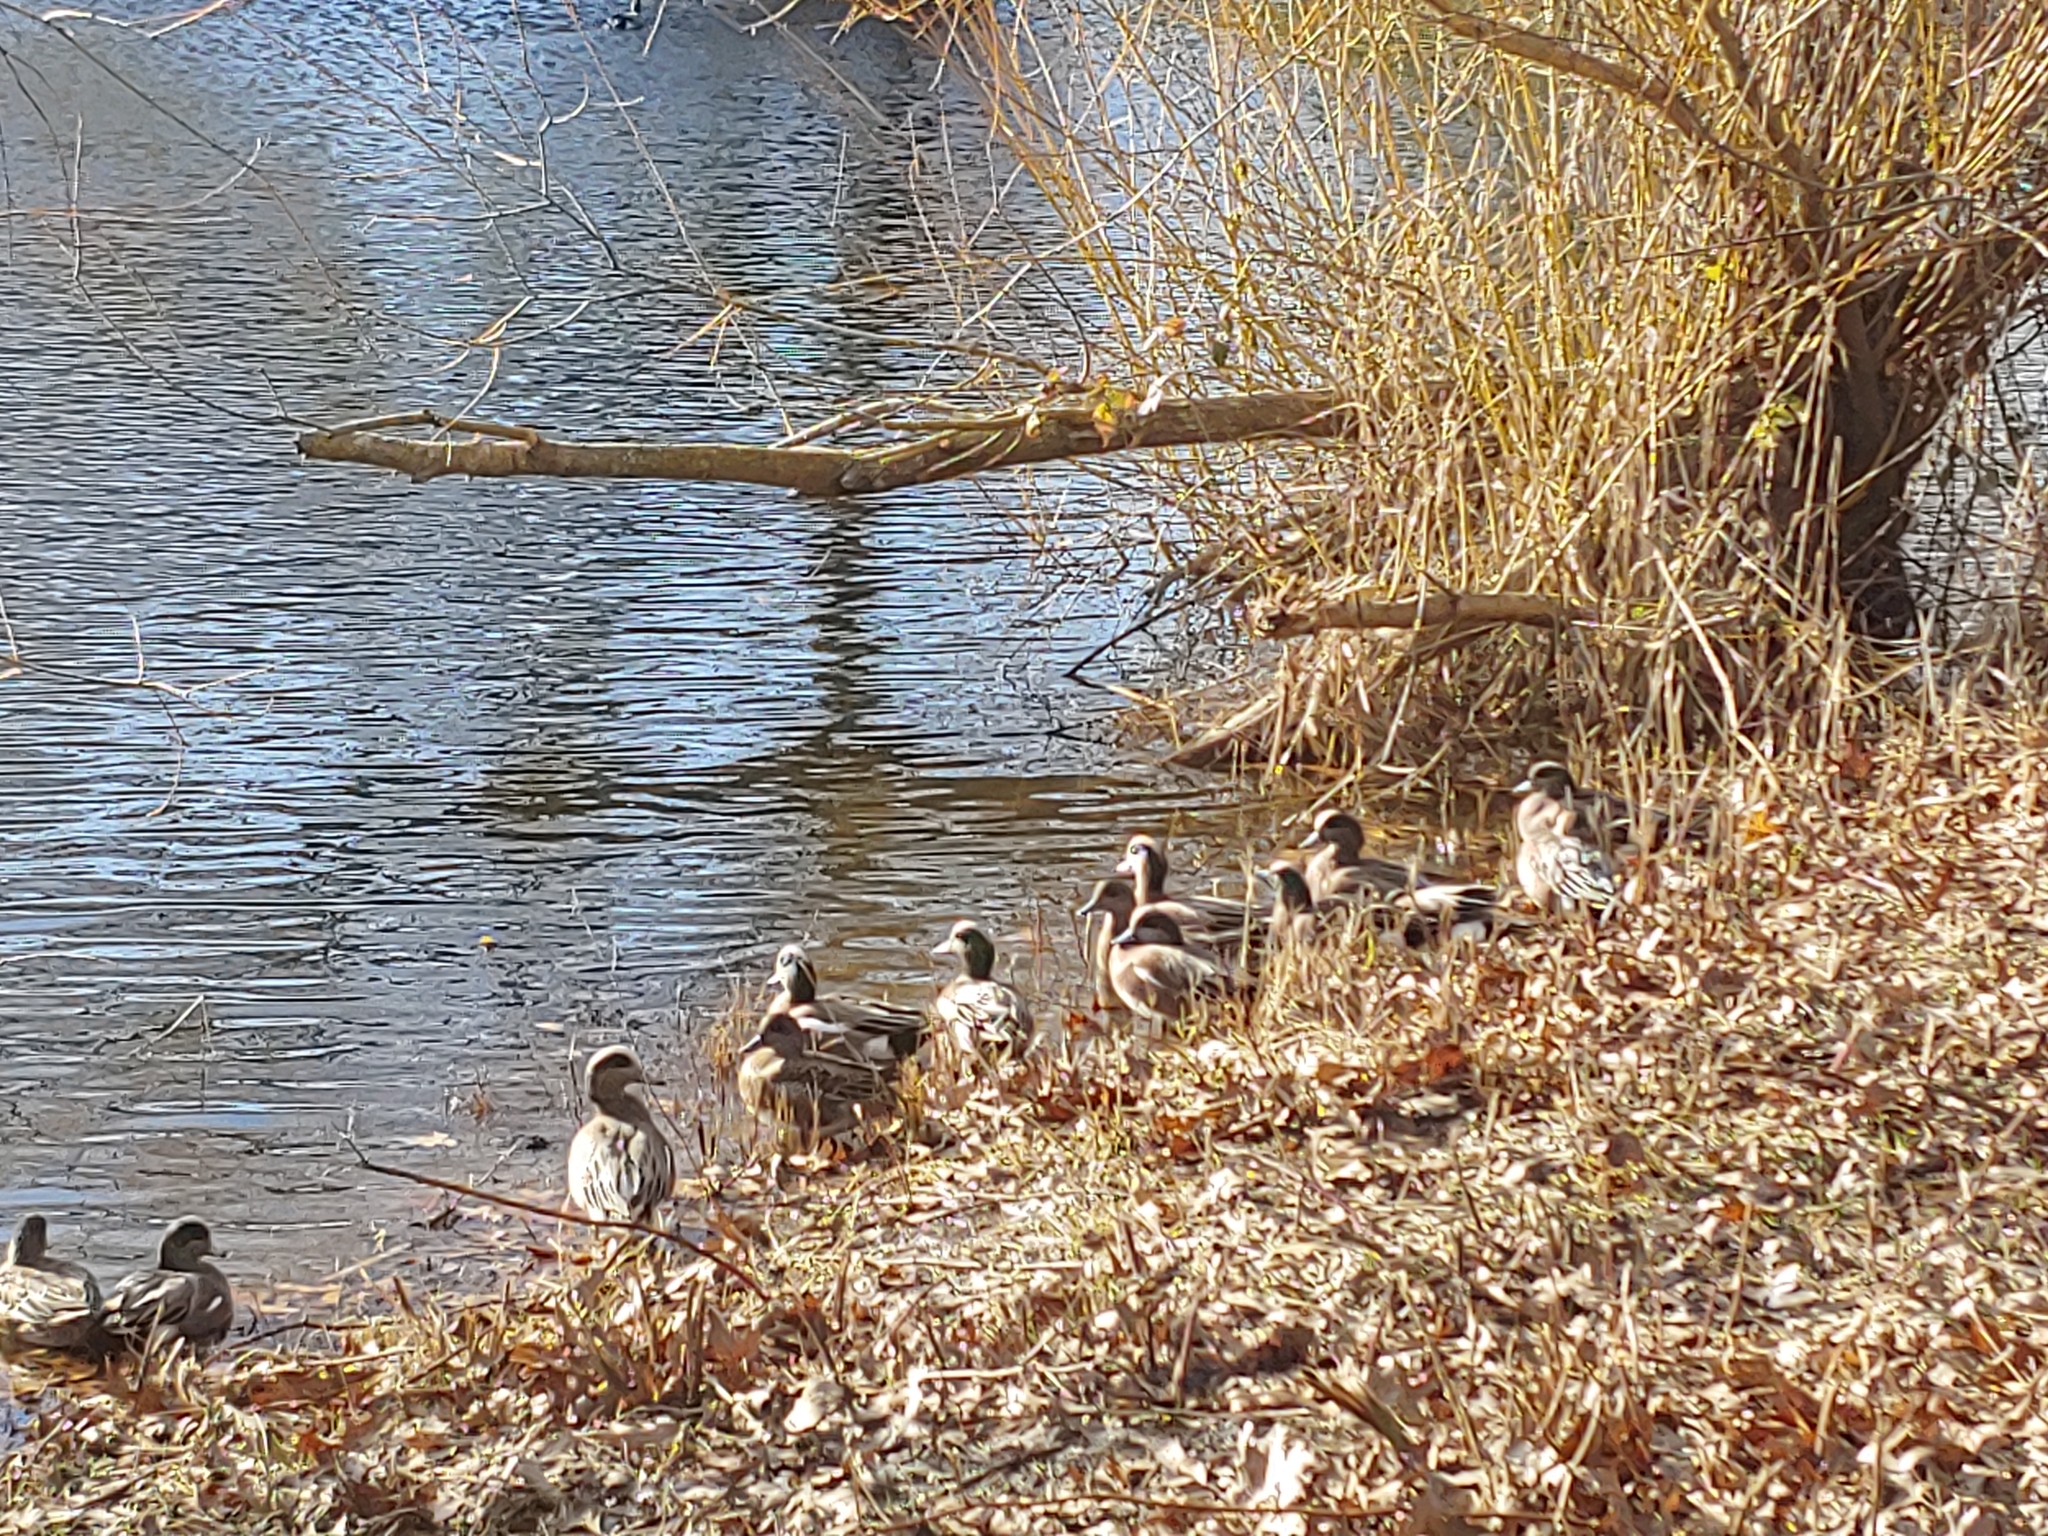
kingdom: Animalia
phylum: Chordata
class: Aves
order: Anseriformes
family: Anatidae
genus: Mareca
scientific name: Mareca americana
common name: American wigeon
